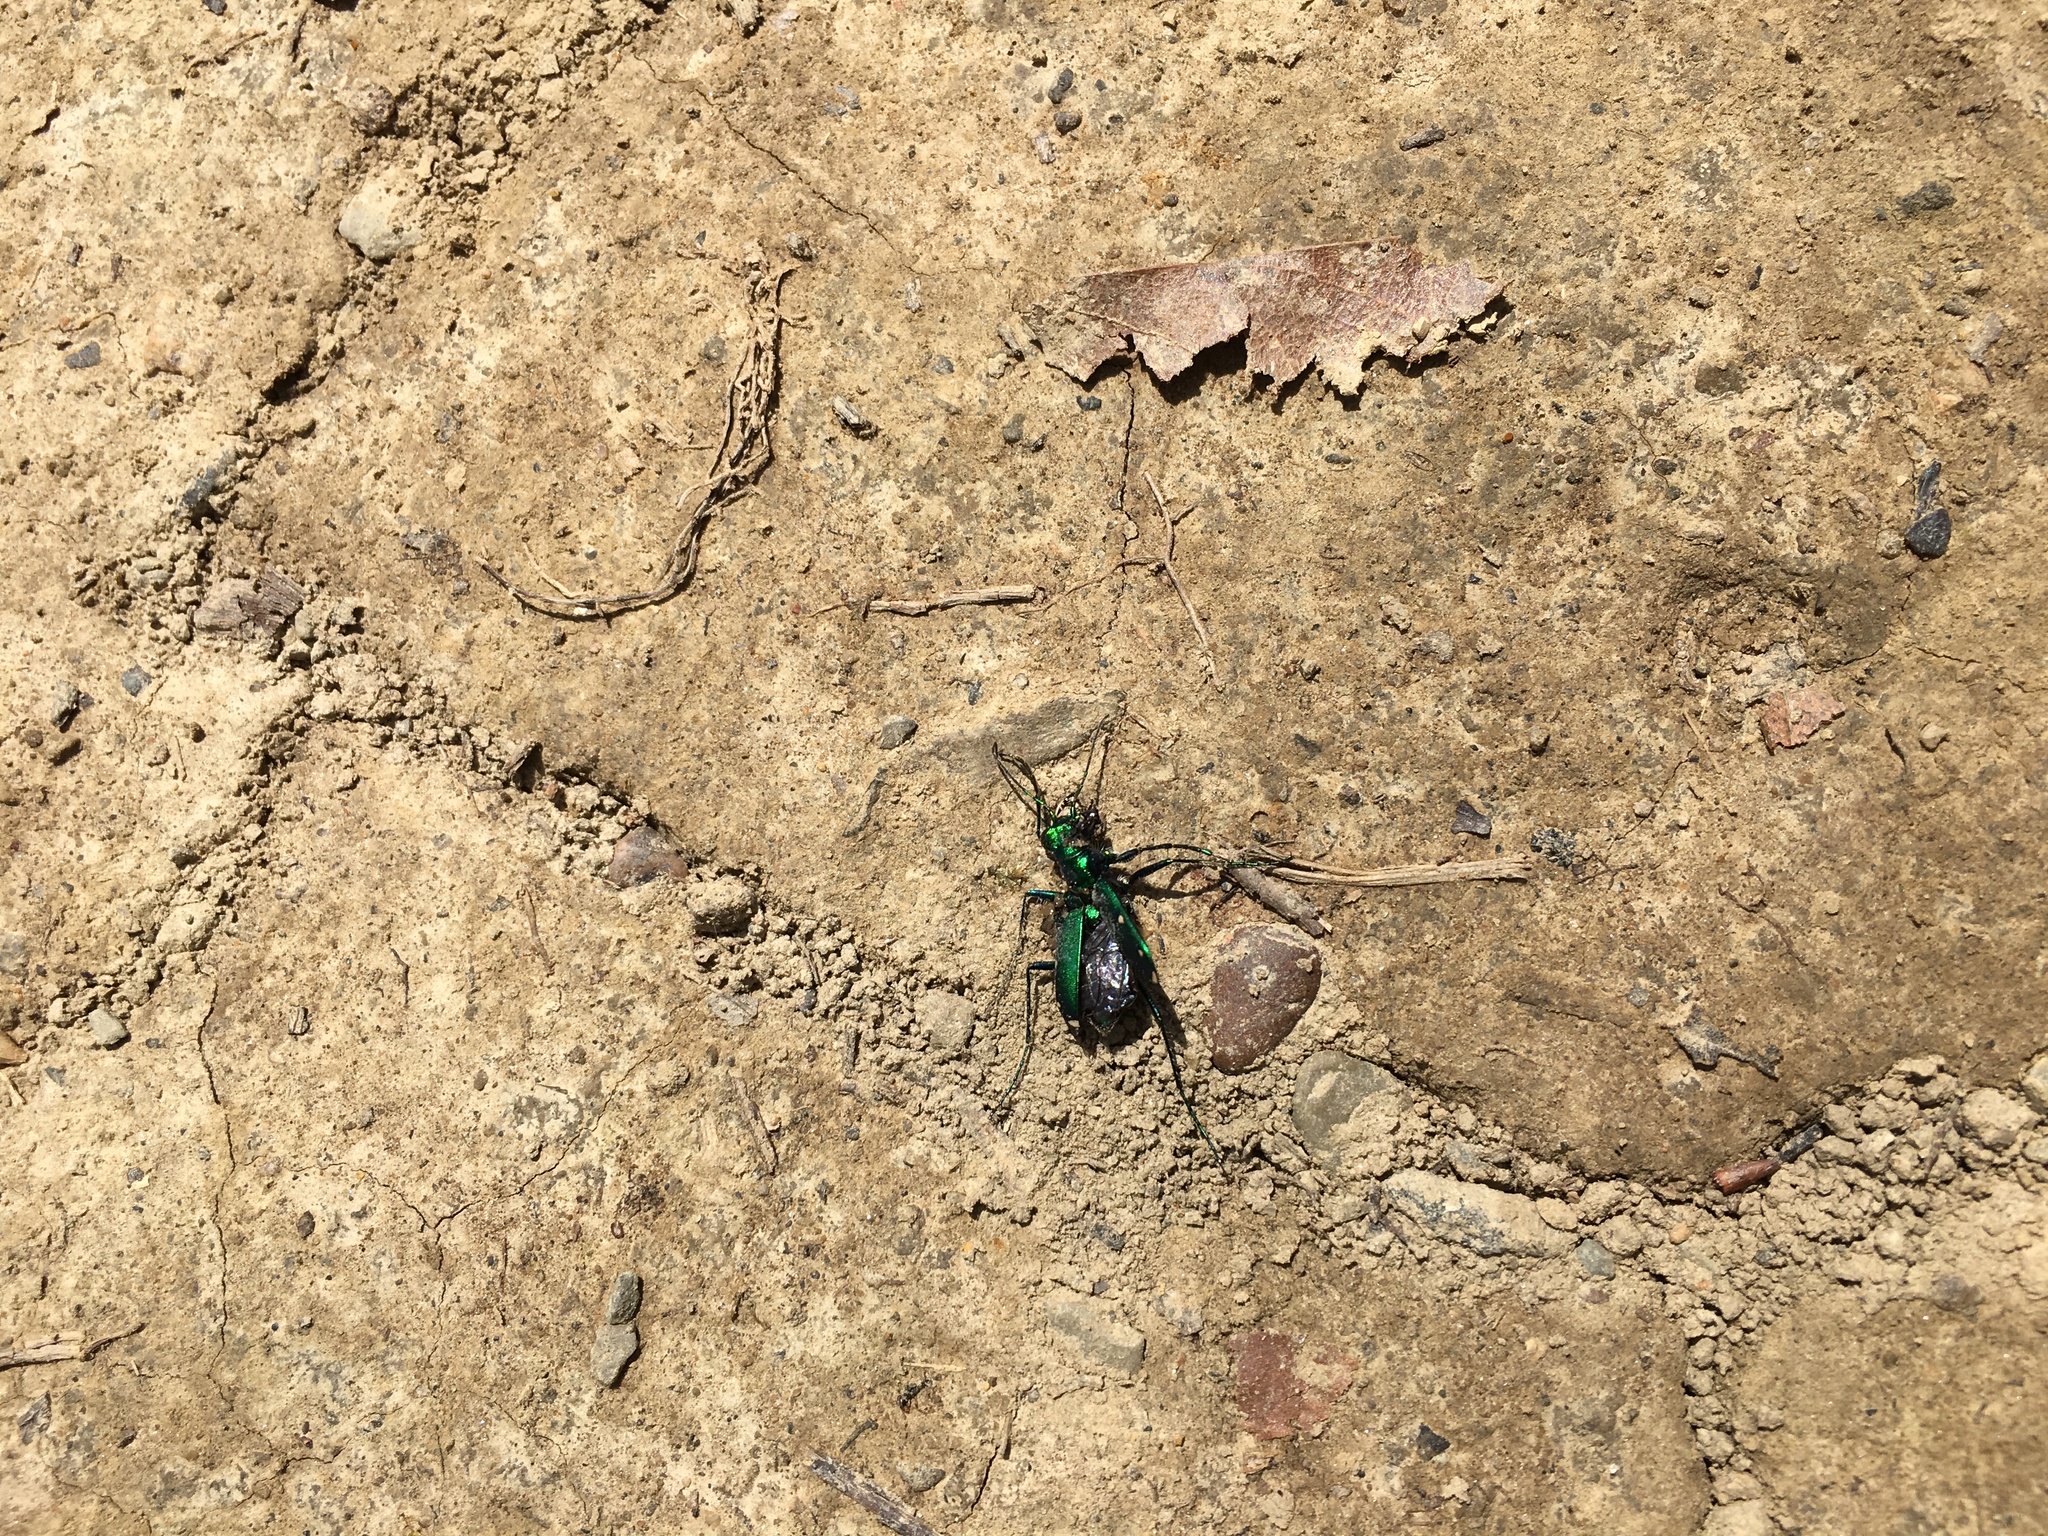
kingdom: Animalia
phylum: Arthropoda
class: Insecta
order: Coleoptera
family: Carabidae
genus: Cicindela
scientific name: Cicindela sexguttata
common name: Six-spotted tiger beetle
